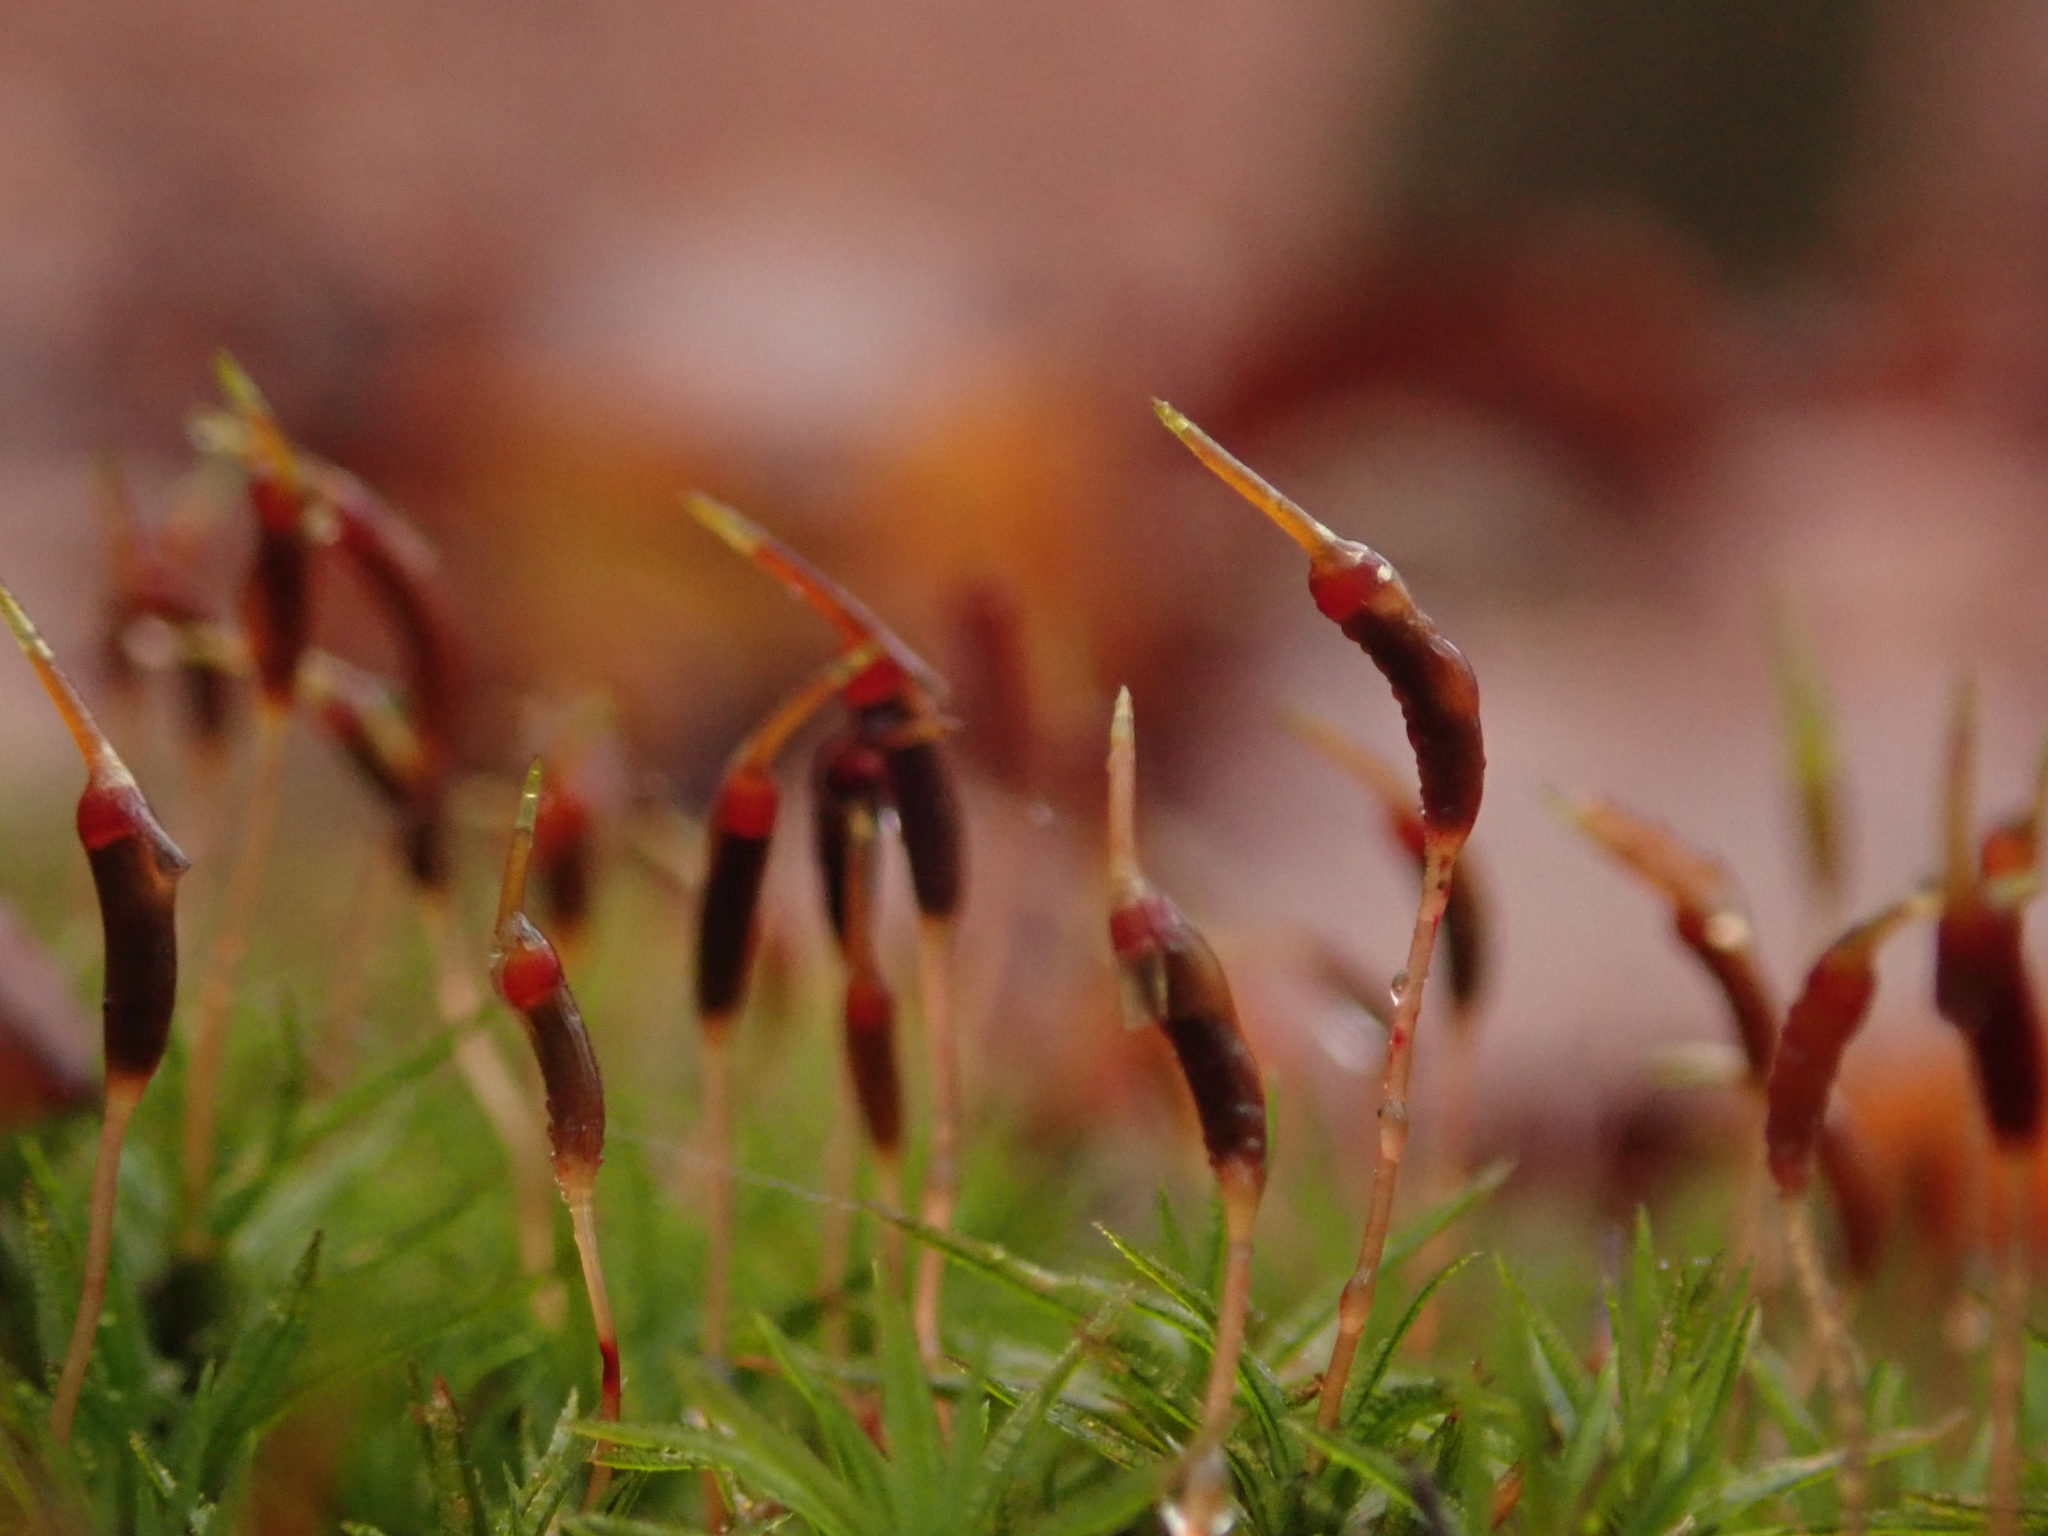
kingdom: Plantae
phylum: Bryophyta
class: Polytrichopsida
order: Polytrichales
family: Polytrichaceae
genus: Atrichum
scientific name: Atrichum undulatum
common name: Common smoothcap
